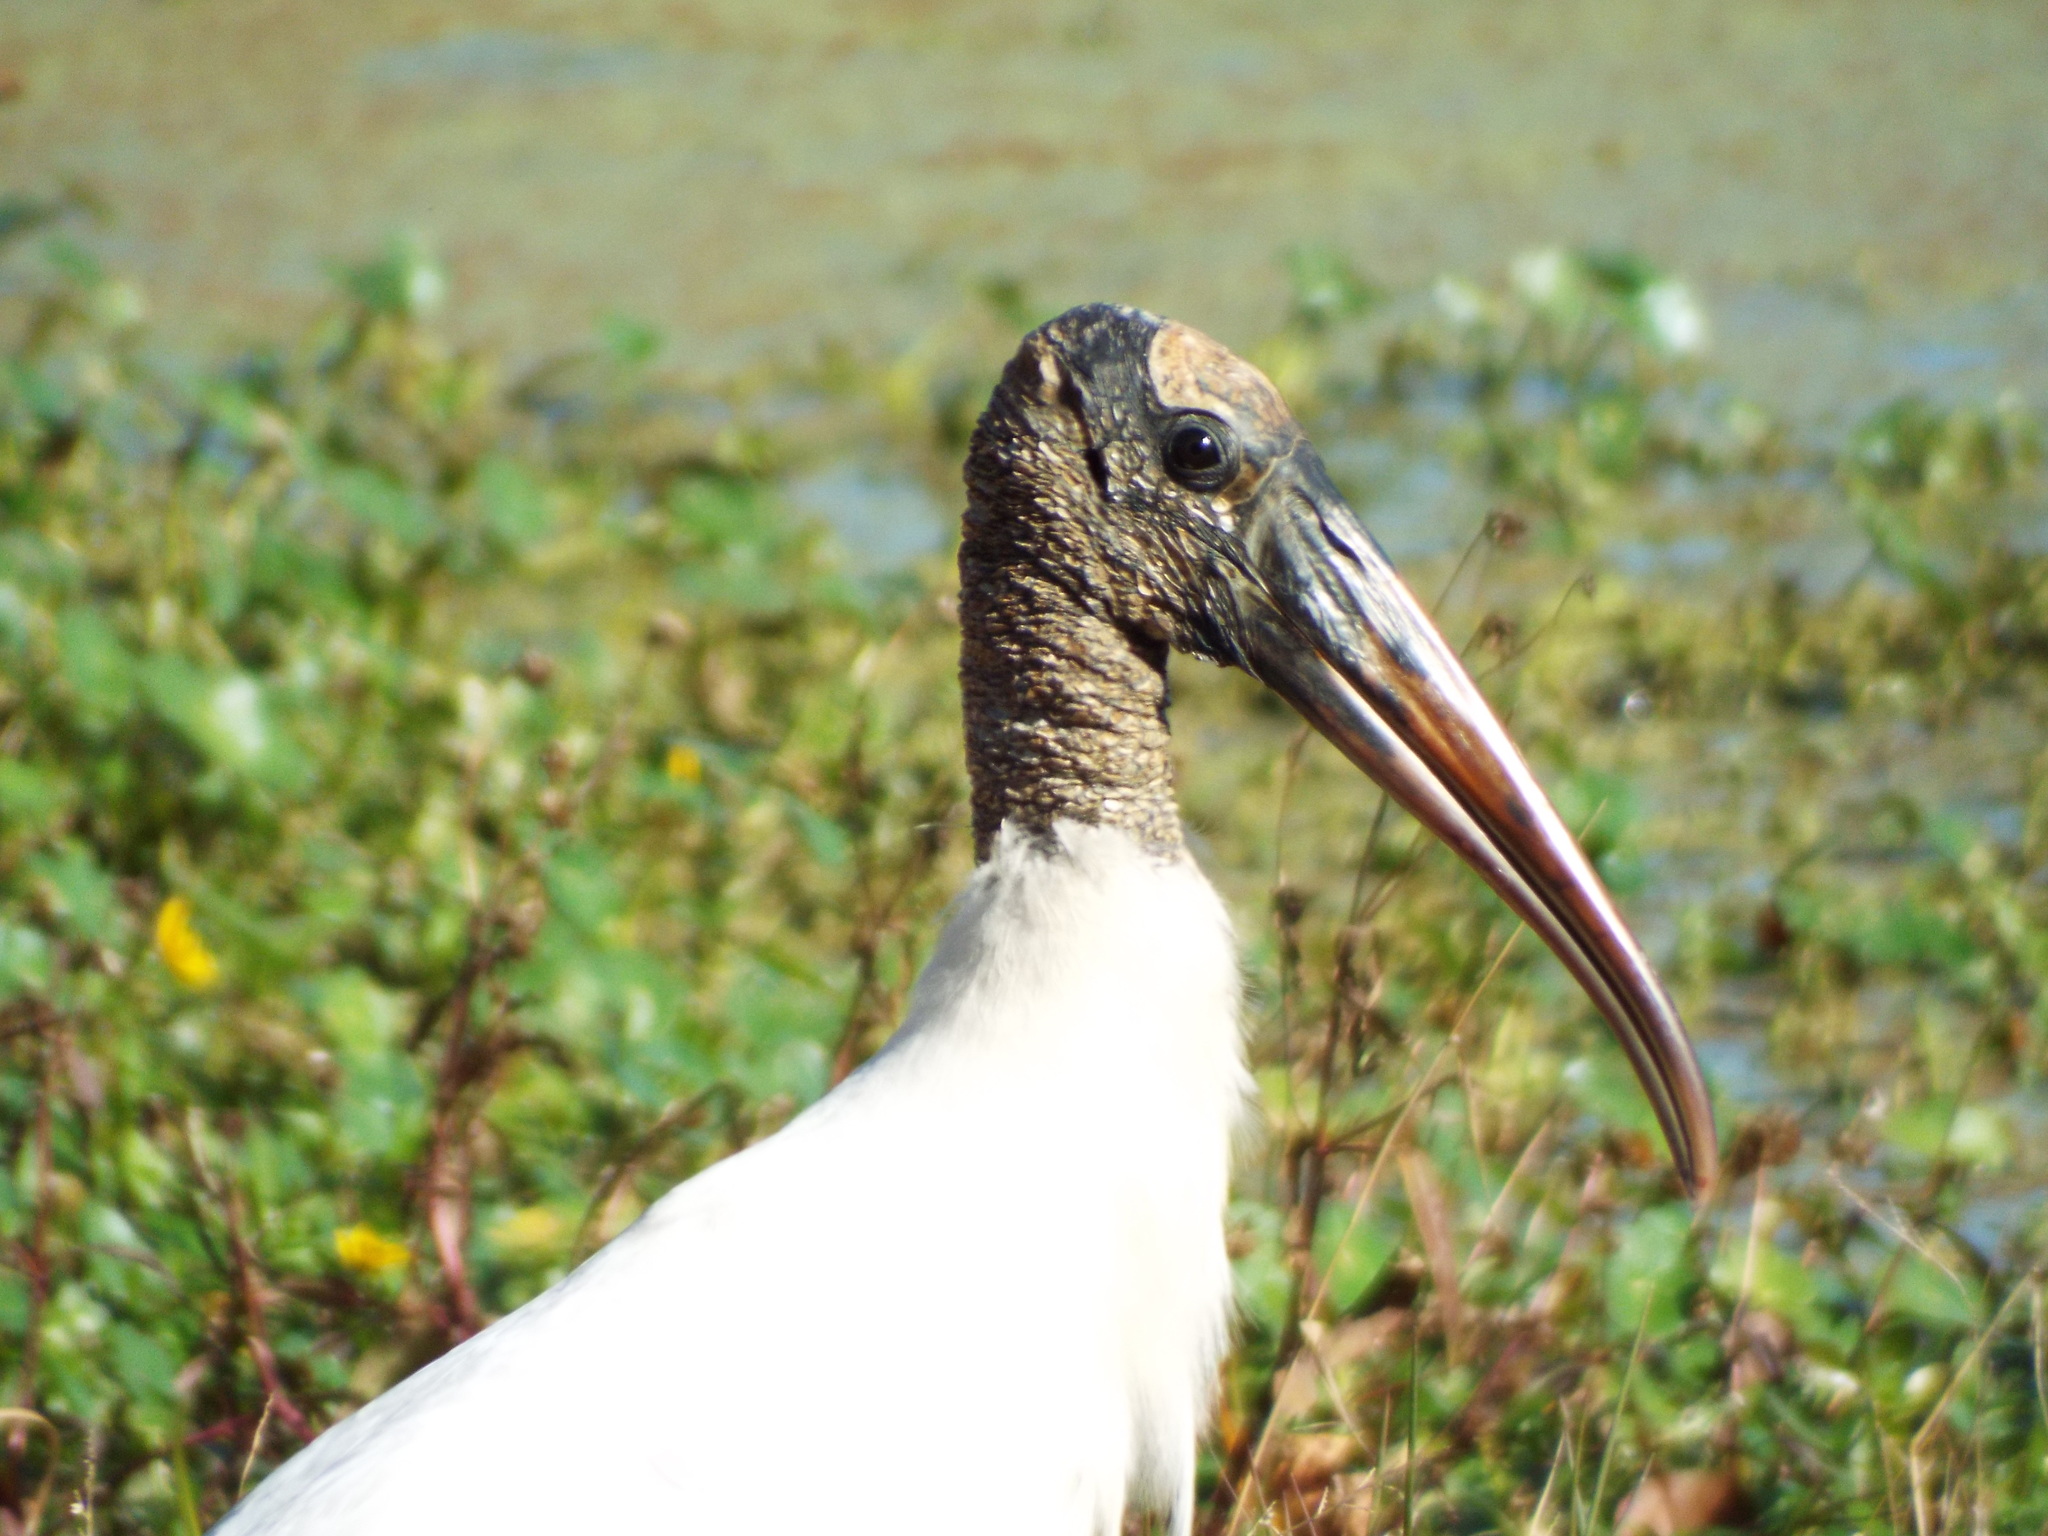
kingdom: Animalia
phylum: Chordata
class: Aves
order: Ciconiiformes
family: Ciconiidae
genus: Mycteria
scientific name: Mycteria americana
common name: Wood stork
